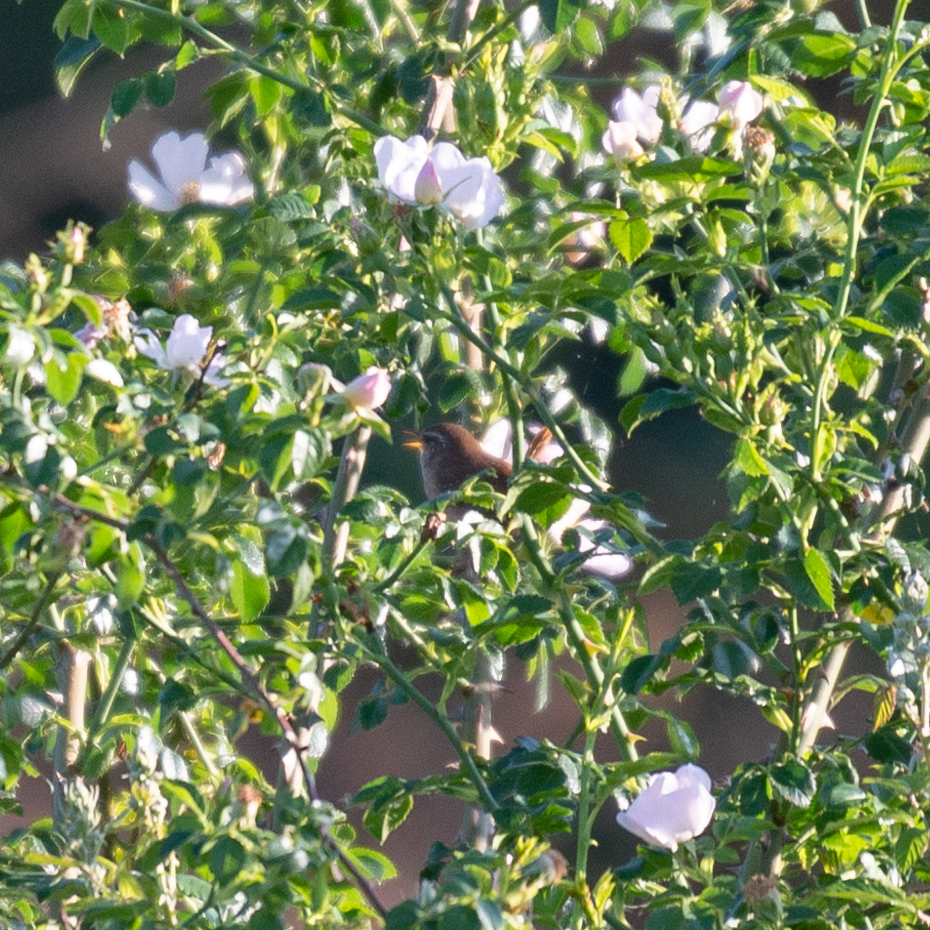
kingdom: Animalia
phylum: Chordata
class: Aves
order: Passeriformes
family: Troglodytidae
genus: Troglodytes
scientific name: Troglodytes troglodytes
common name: Eurasian wren
